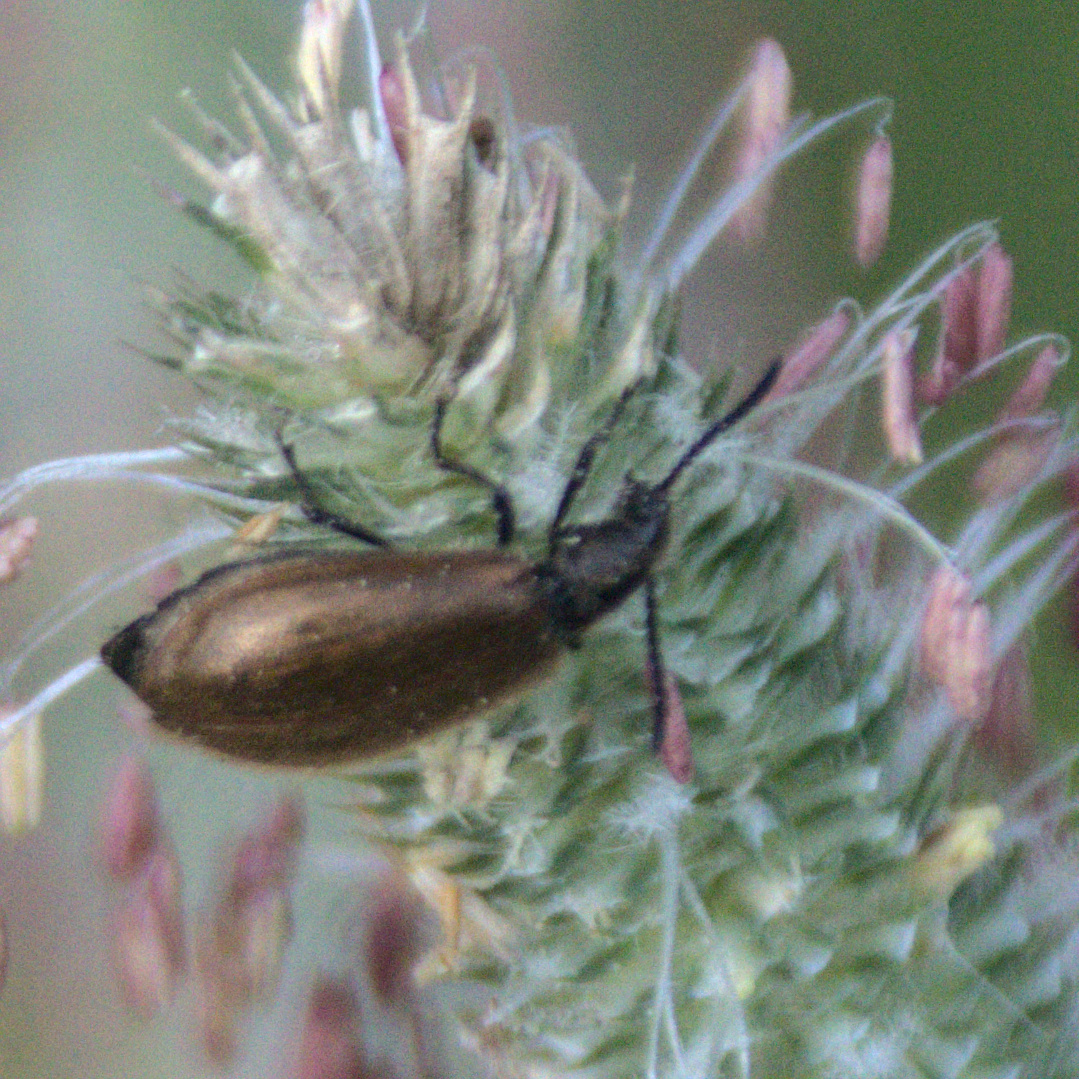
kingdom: Animalia
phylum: Arthropoda
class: Insecta
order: Coleoptera
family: Tenebrionidae
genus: Lagria
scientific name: Lagria hirta
